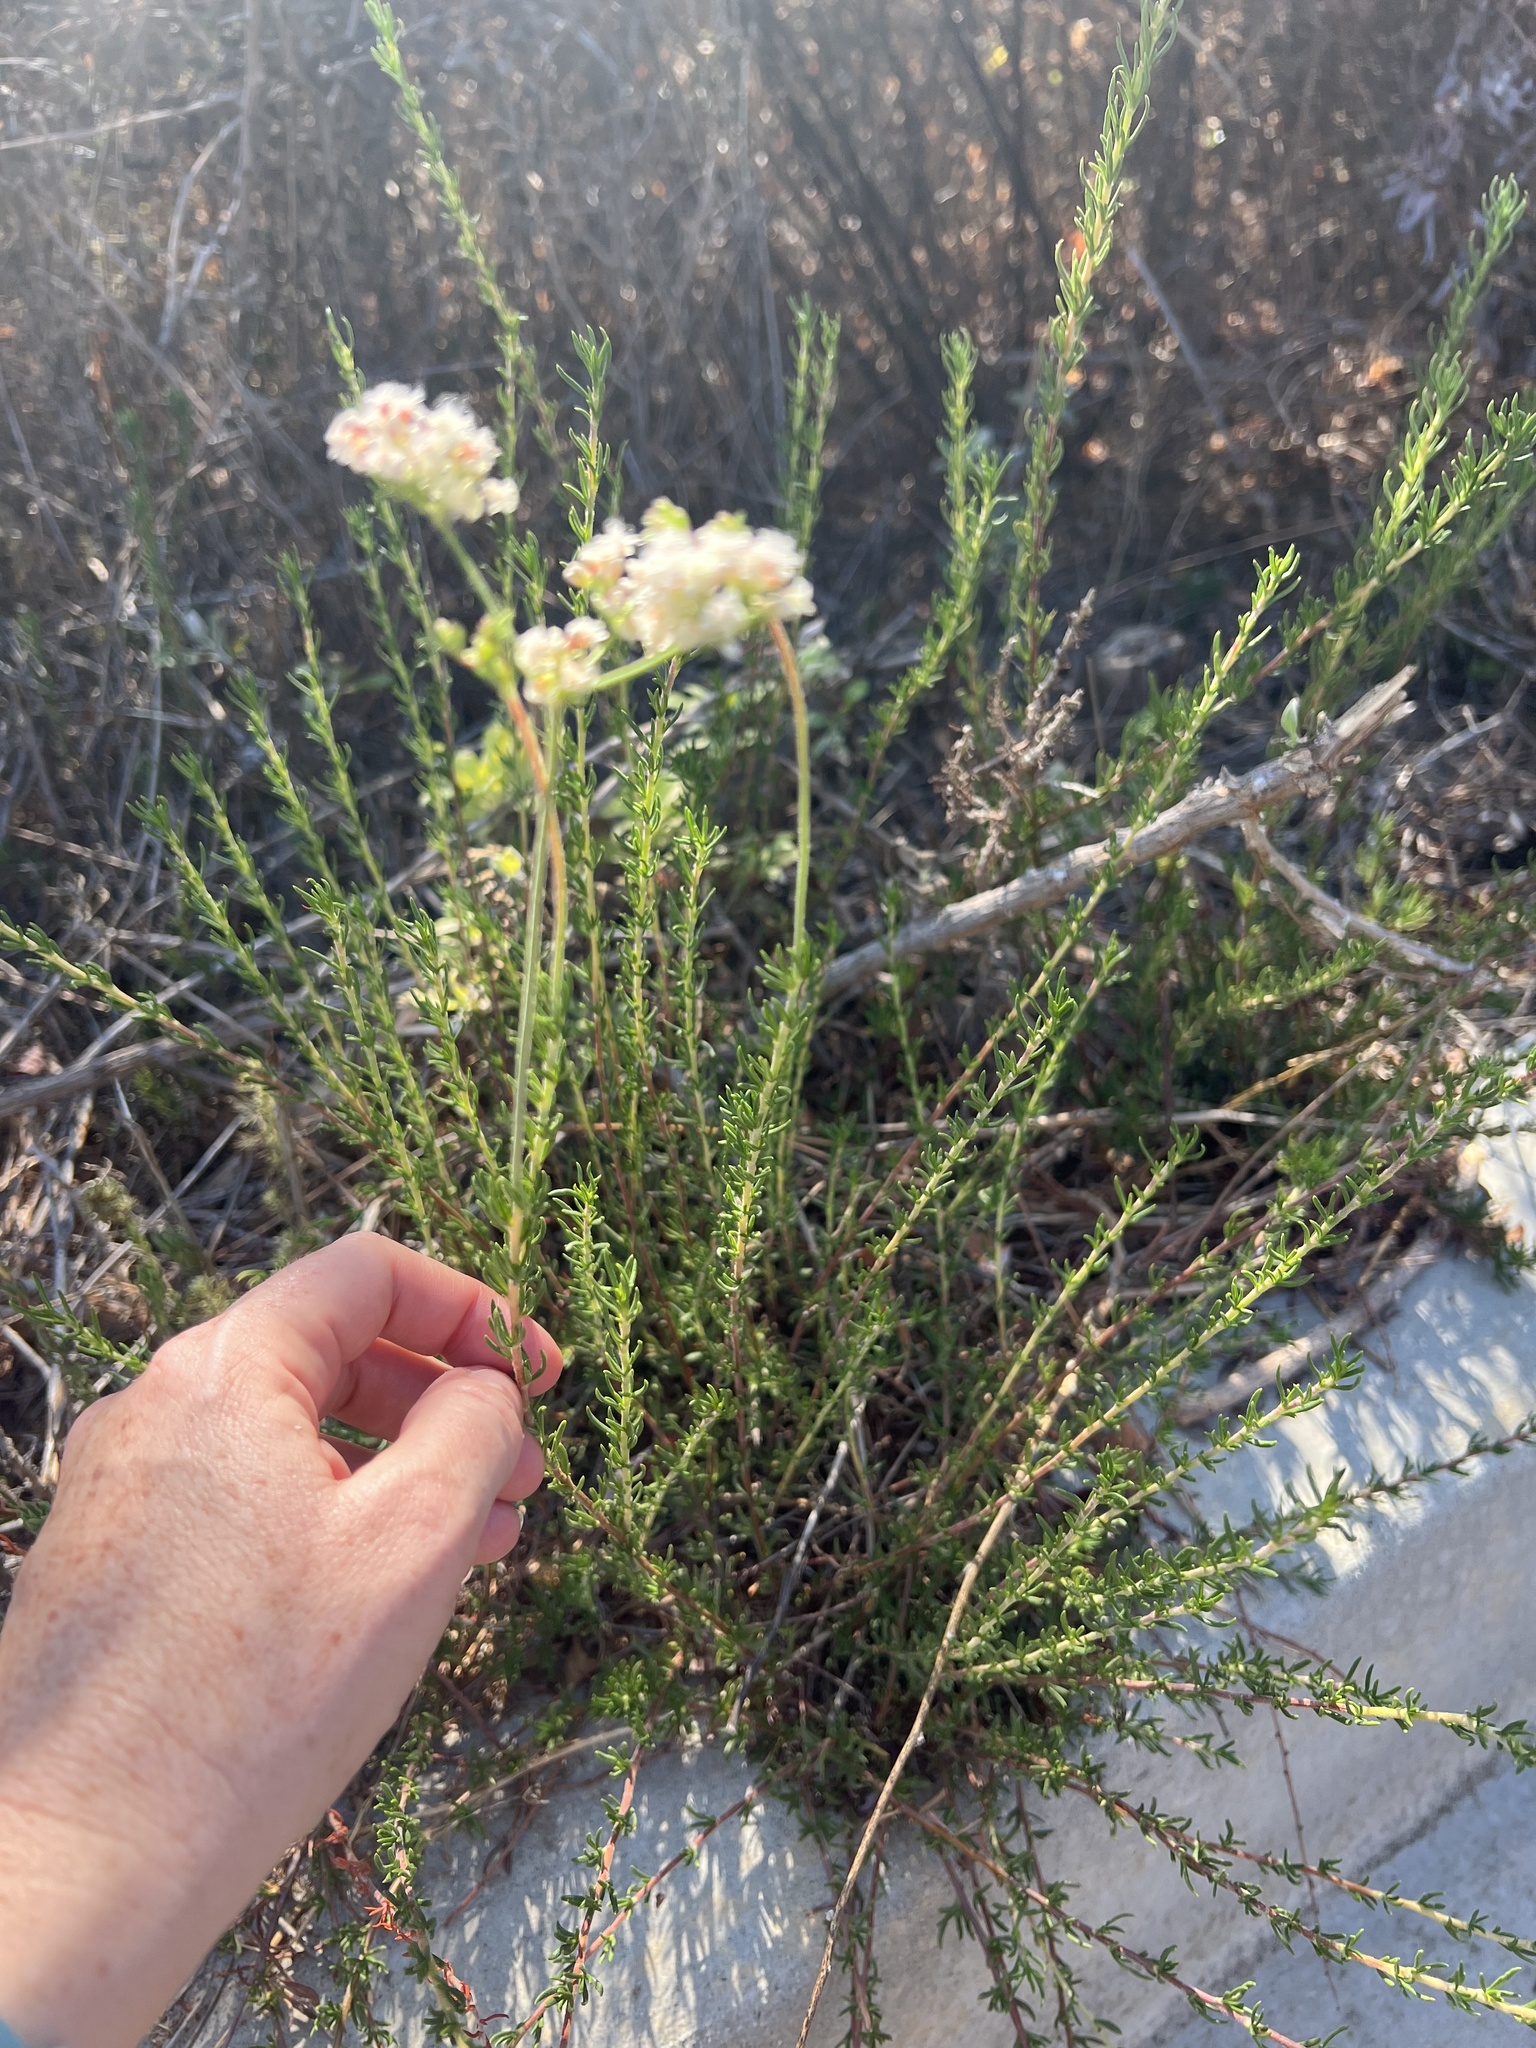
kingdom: Plantae
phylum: Tracheophyta
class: Magnoliopsida
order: Caryophyllales
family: Polygonaceae
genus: Eriogonum
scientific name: Eriogonum fasciculatum
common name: California wild buckwheat
